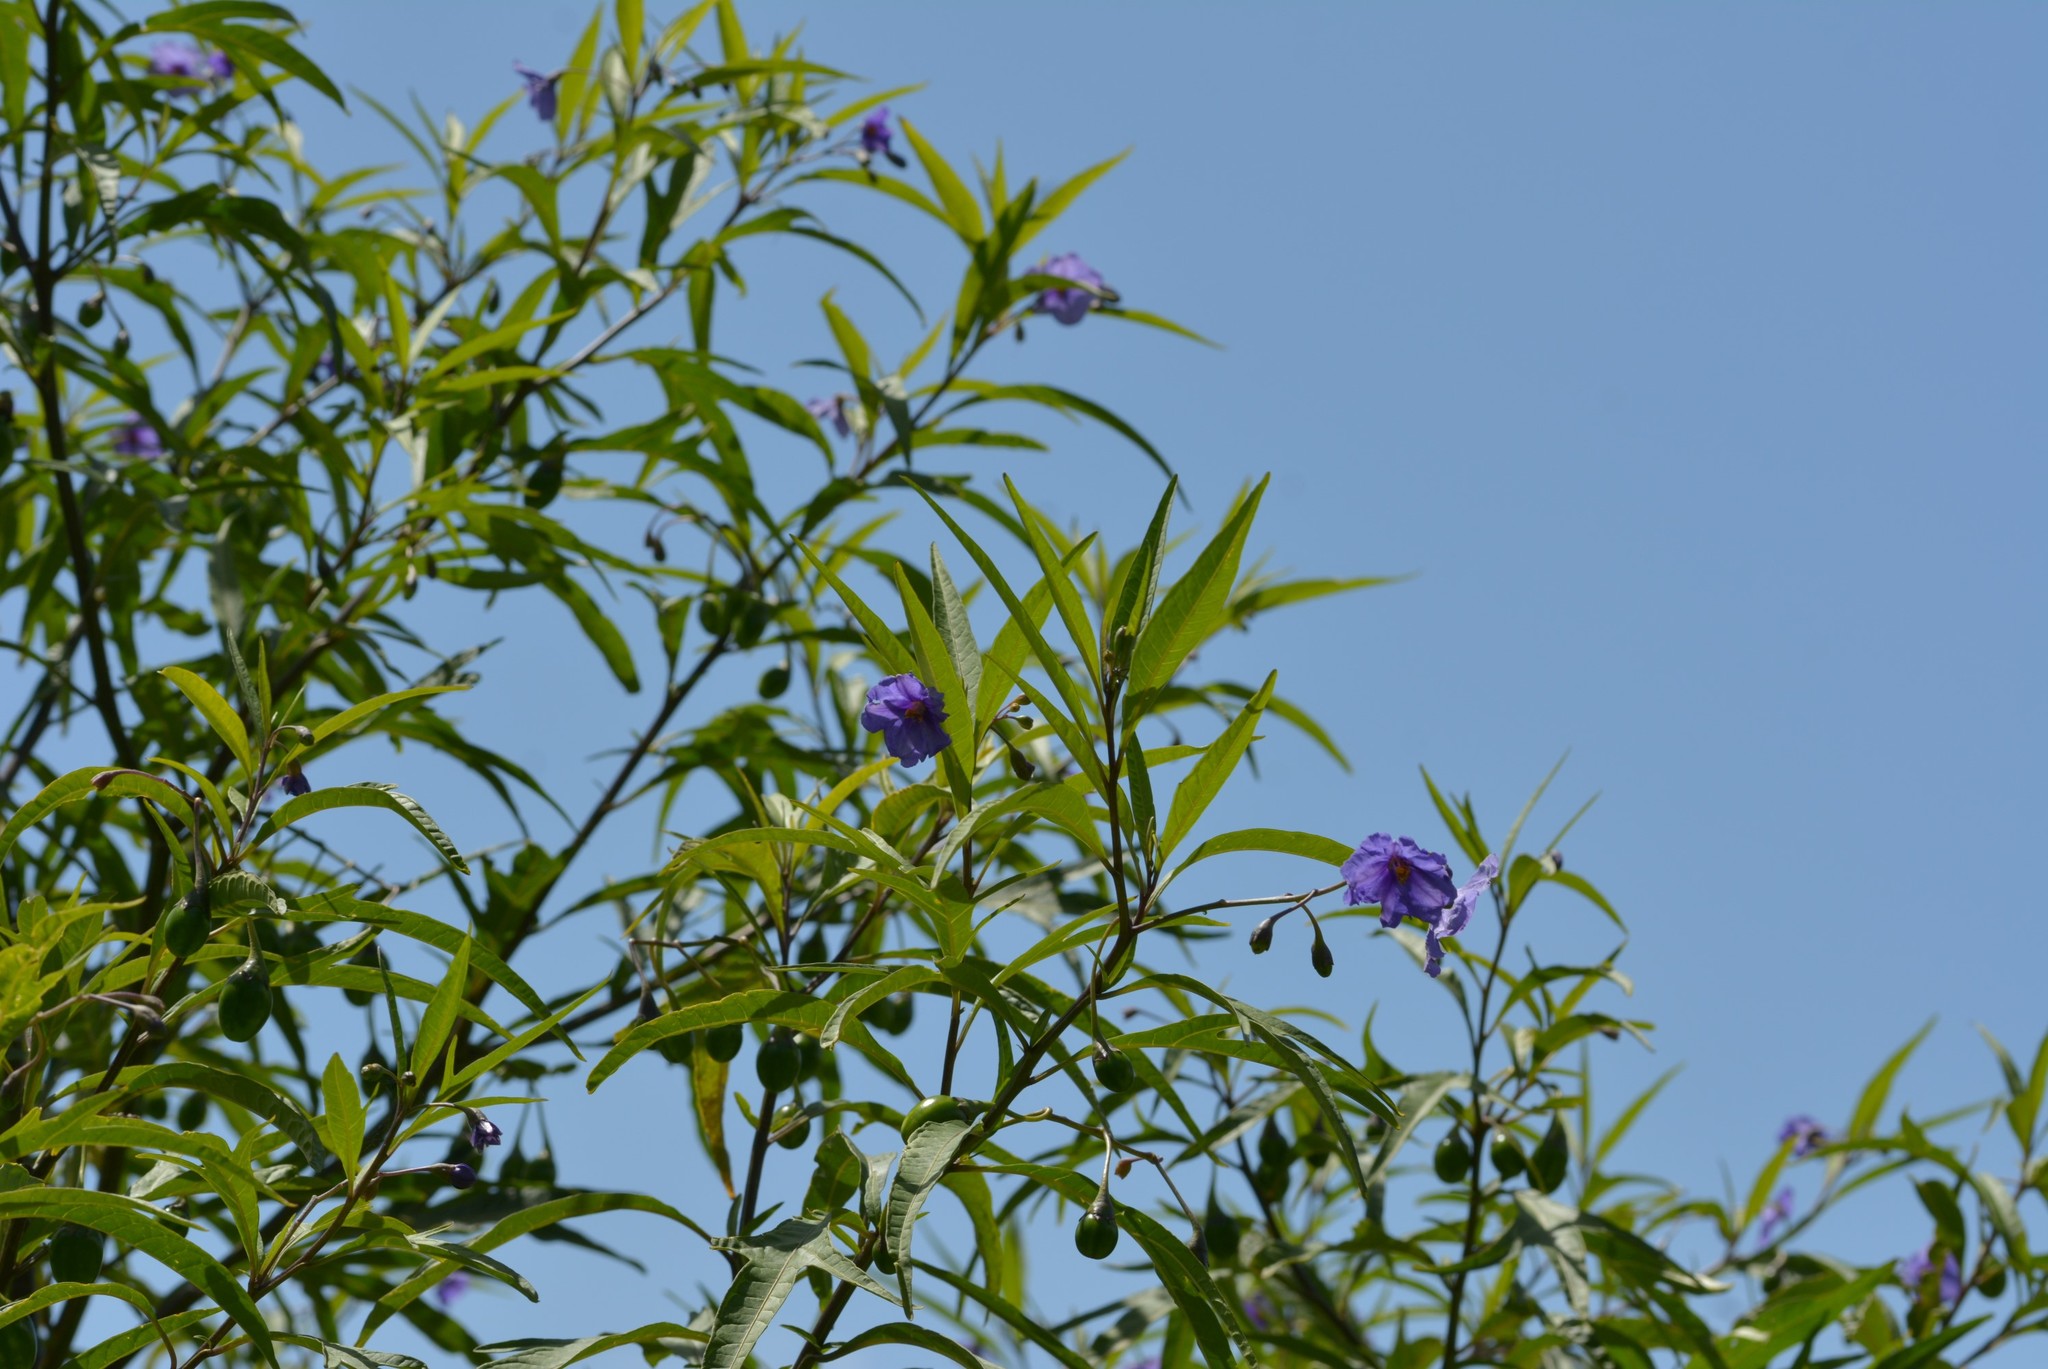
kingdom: Plantae
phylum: Tracheophyta
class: Magnoliopsida
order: Solanales
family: Solanaceae
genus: Solanum
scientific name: Solanum laciniatum
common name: Kangaroo-apple
